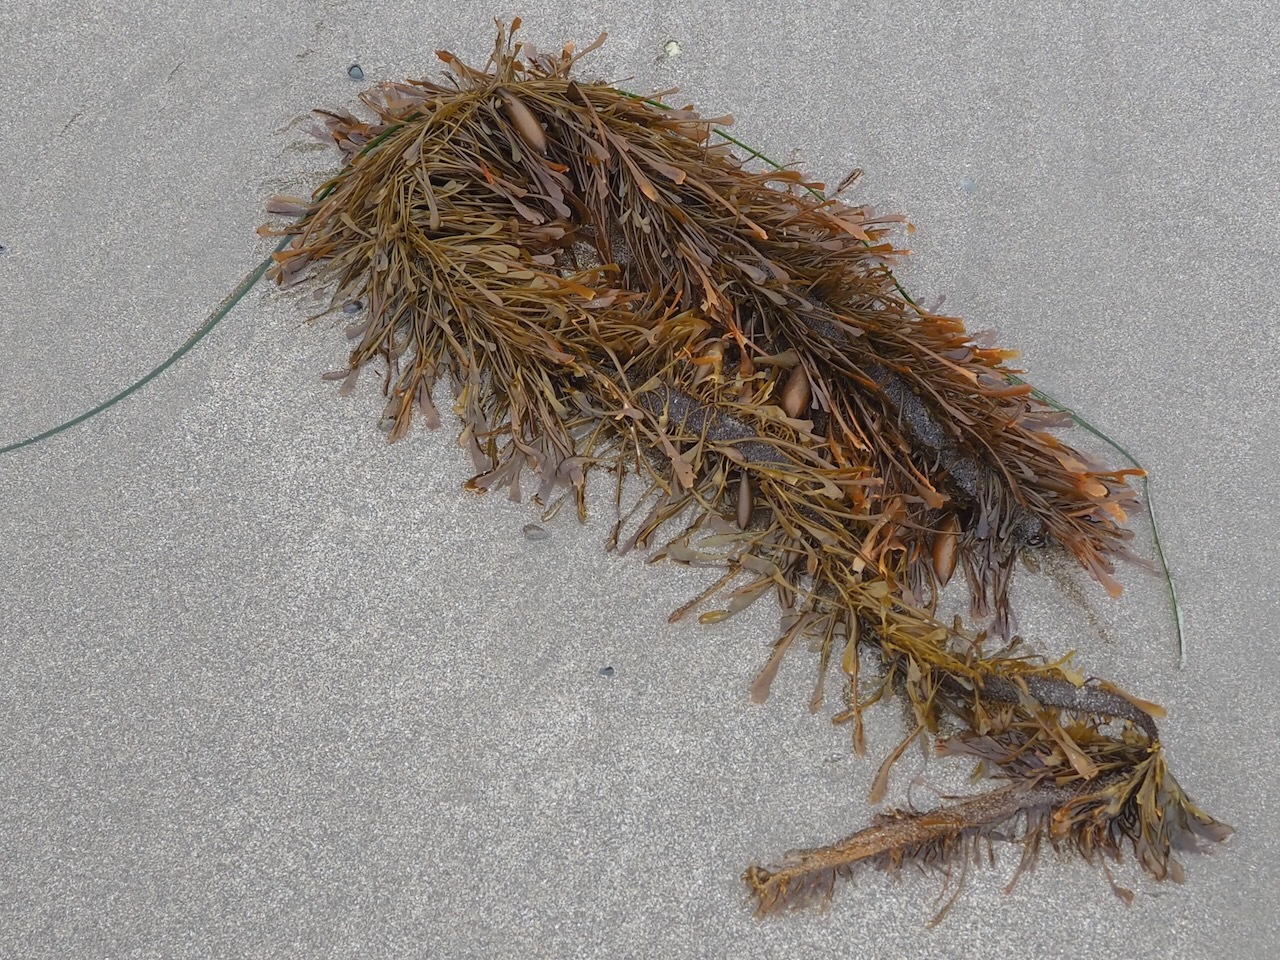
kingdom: Chromista
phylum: Ochrophyta
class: Phaeophyceae
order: Laminariales
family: Lessoniaceae
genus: Egregia
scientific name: Egregia menziesii
